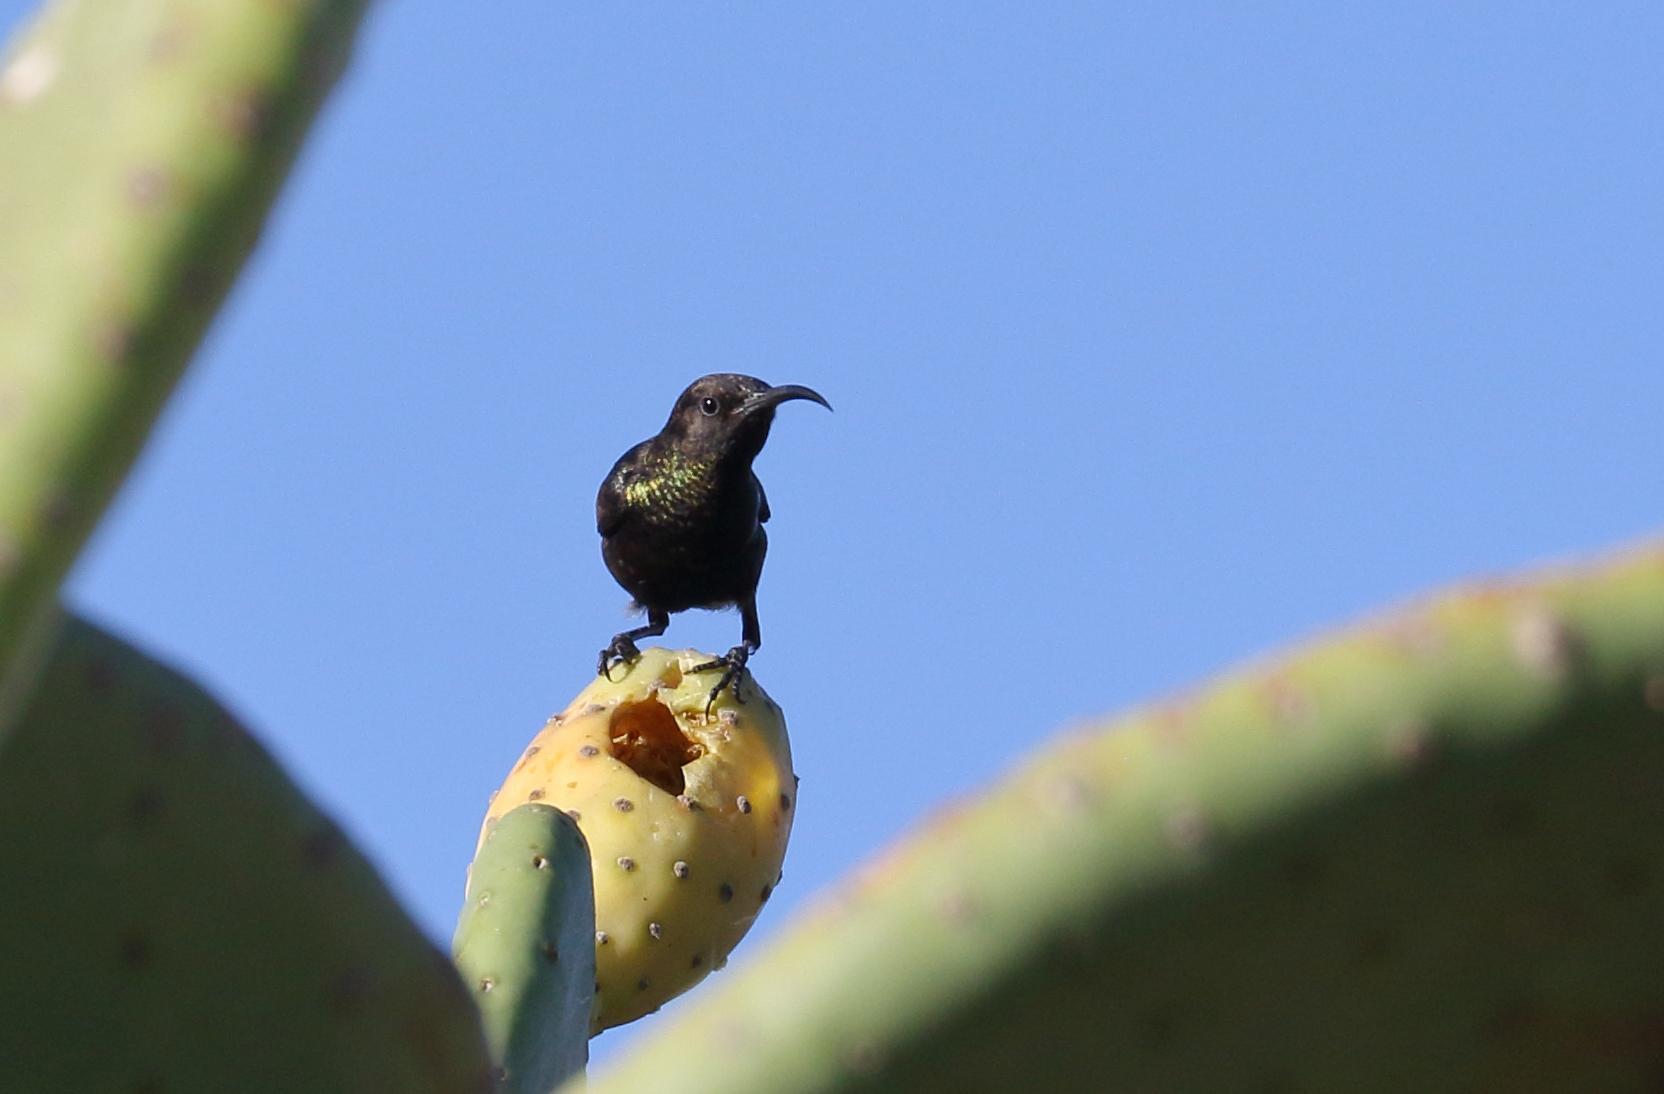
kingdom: Animalia
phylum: Chordata
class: Aves
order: Passeriformes
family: Nectariniidae
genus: Cinnyris
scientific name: Cinnyris fuscus
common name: Dusky sunbird
